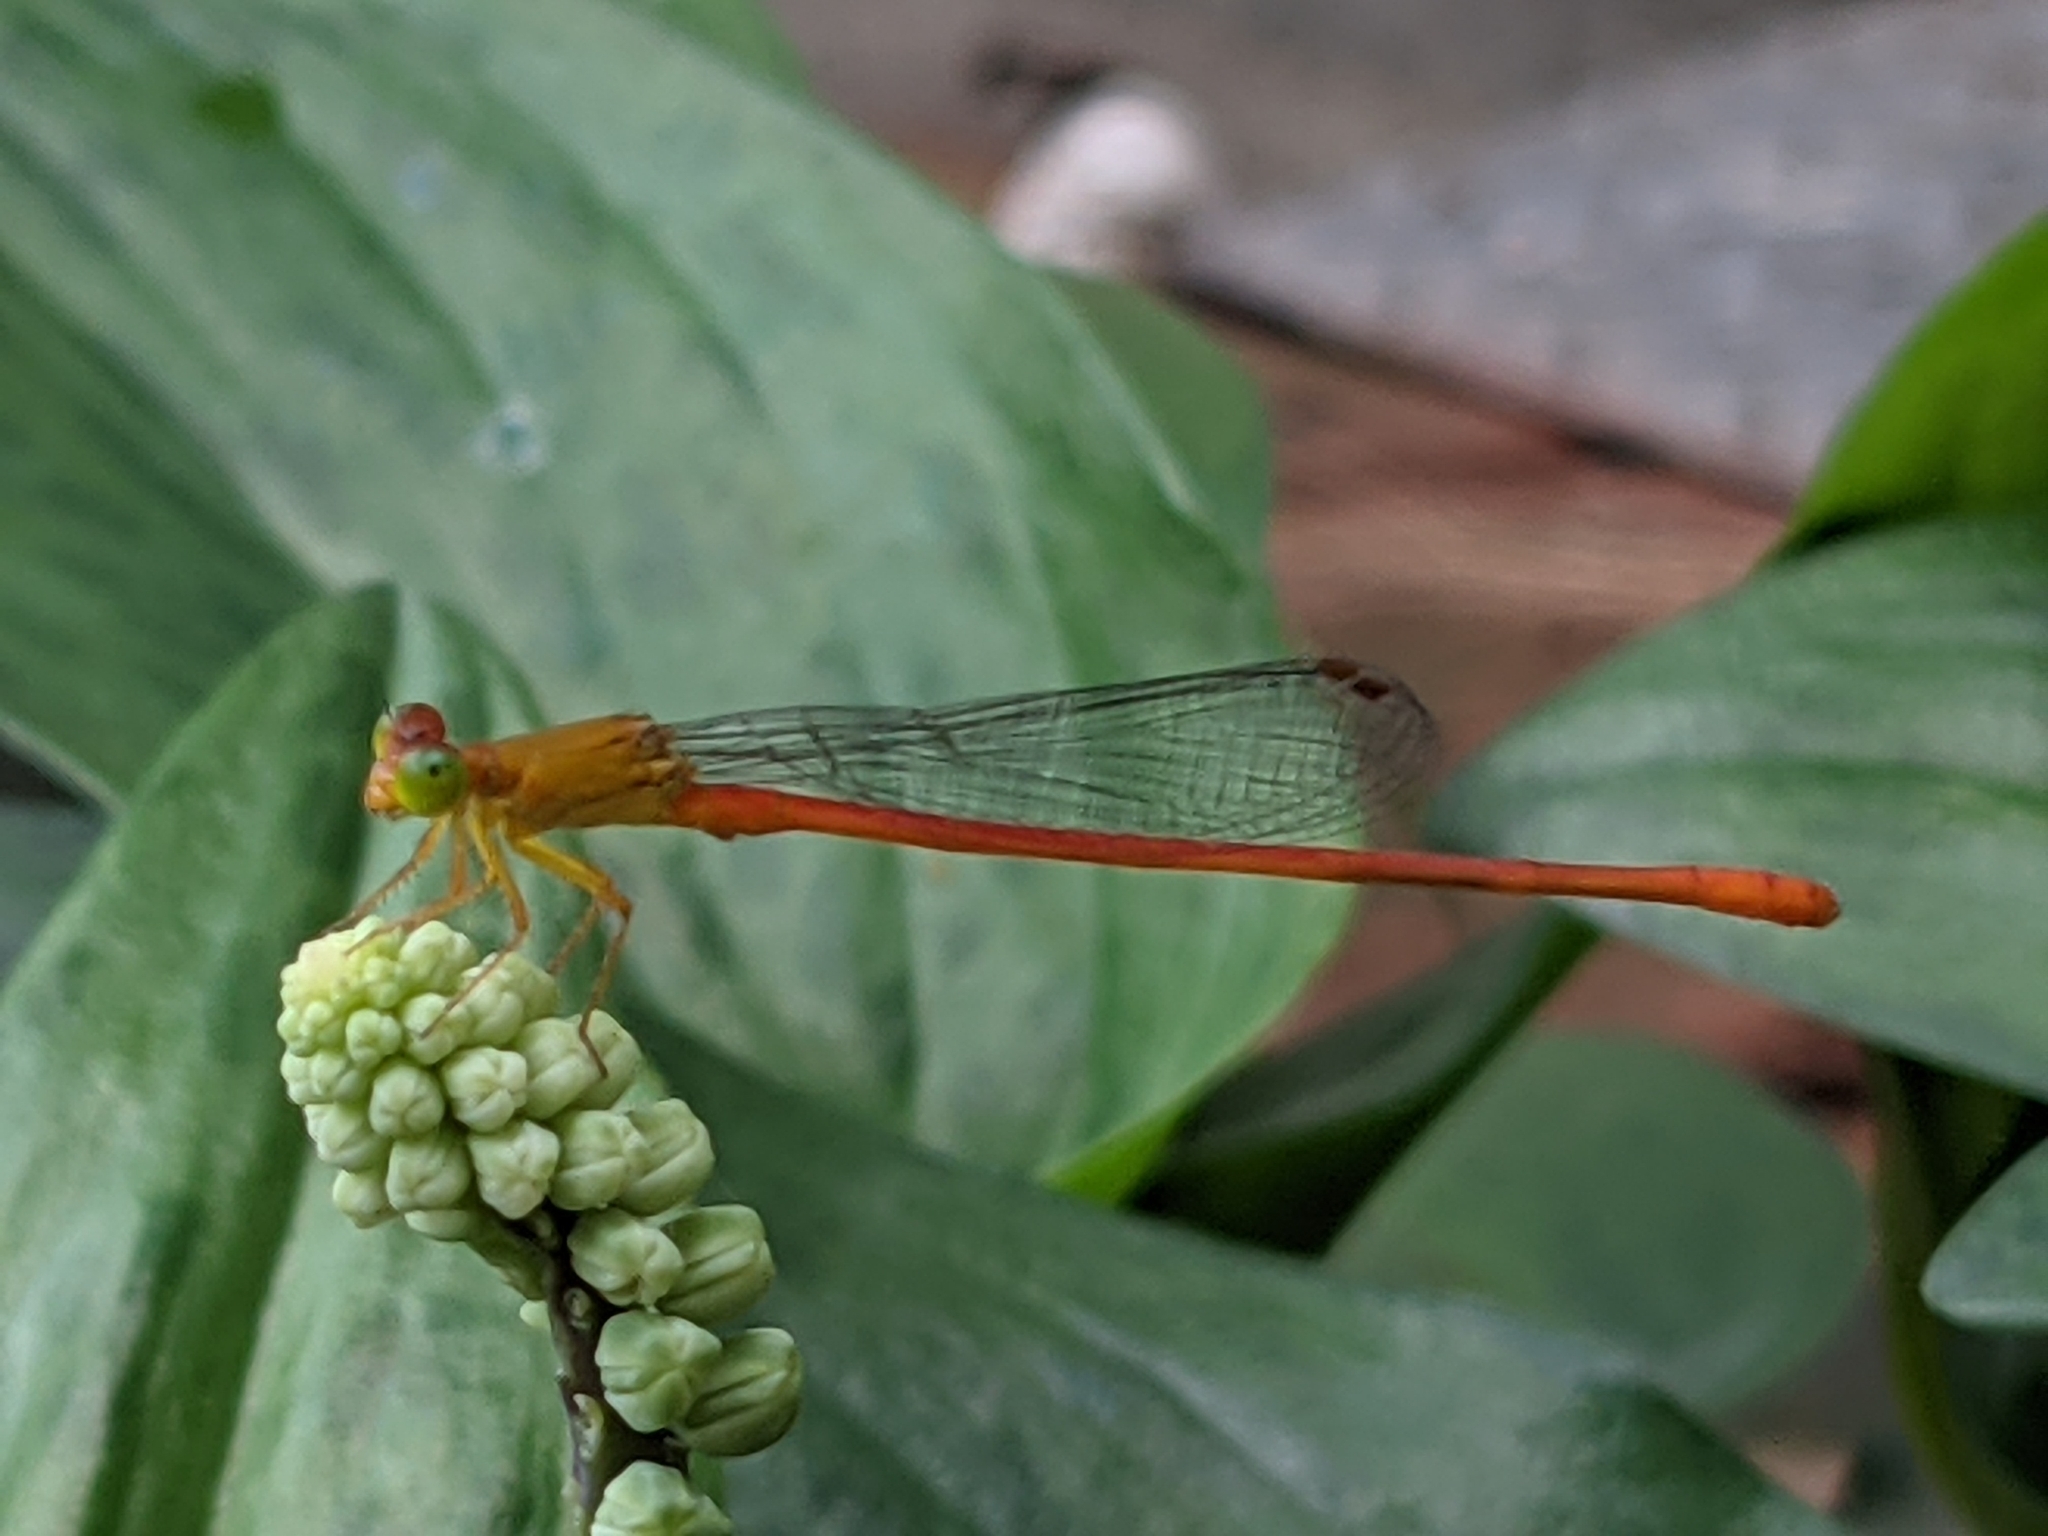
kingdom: Animalia
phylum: Arthropoda
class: Insecta
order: Odonata
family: Coenagrionidae
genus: Ceriagrion
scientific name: Ceriagrion auranticum
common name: Orange-tailed sprite
